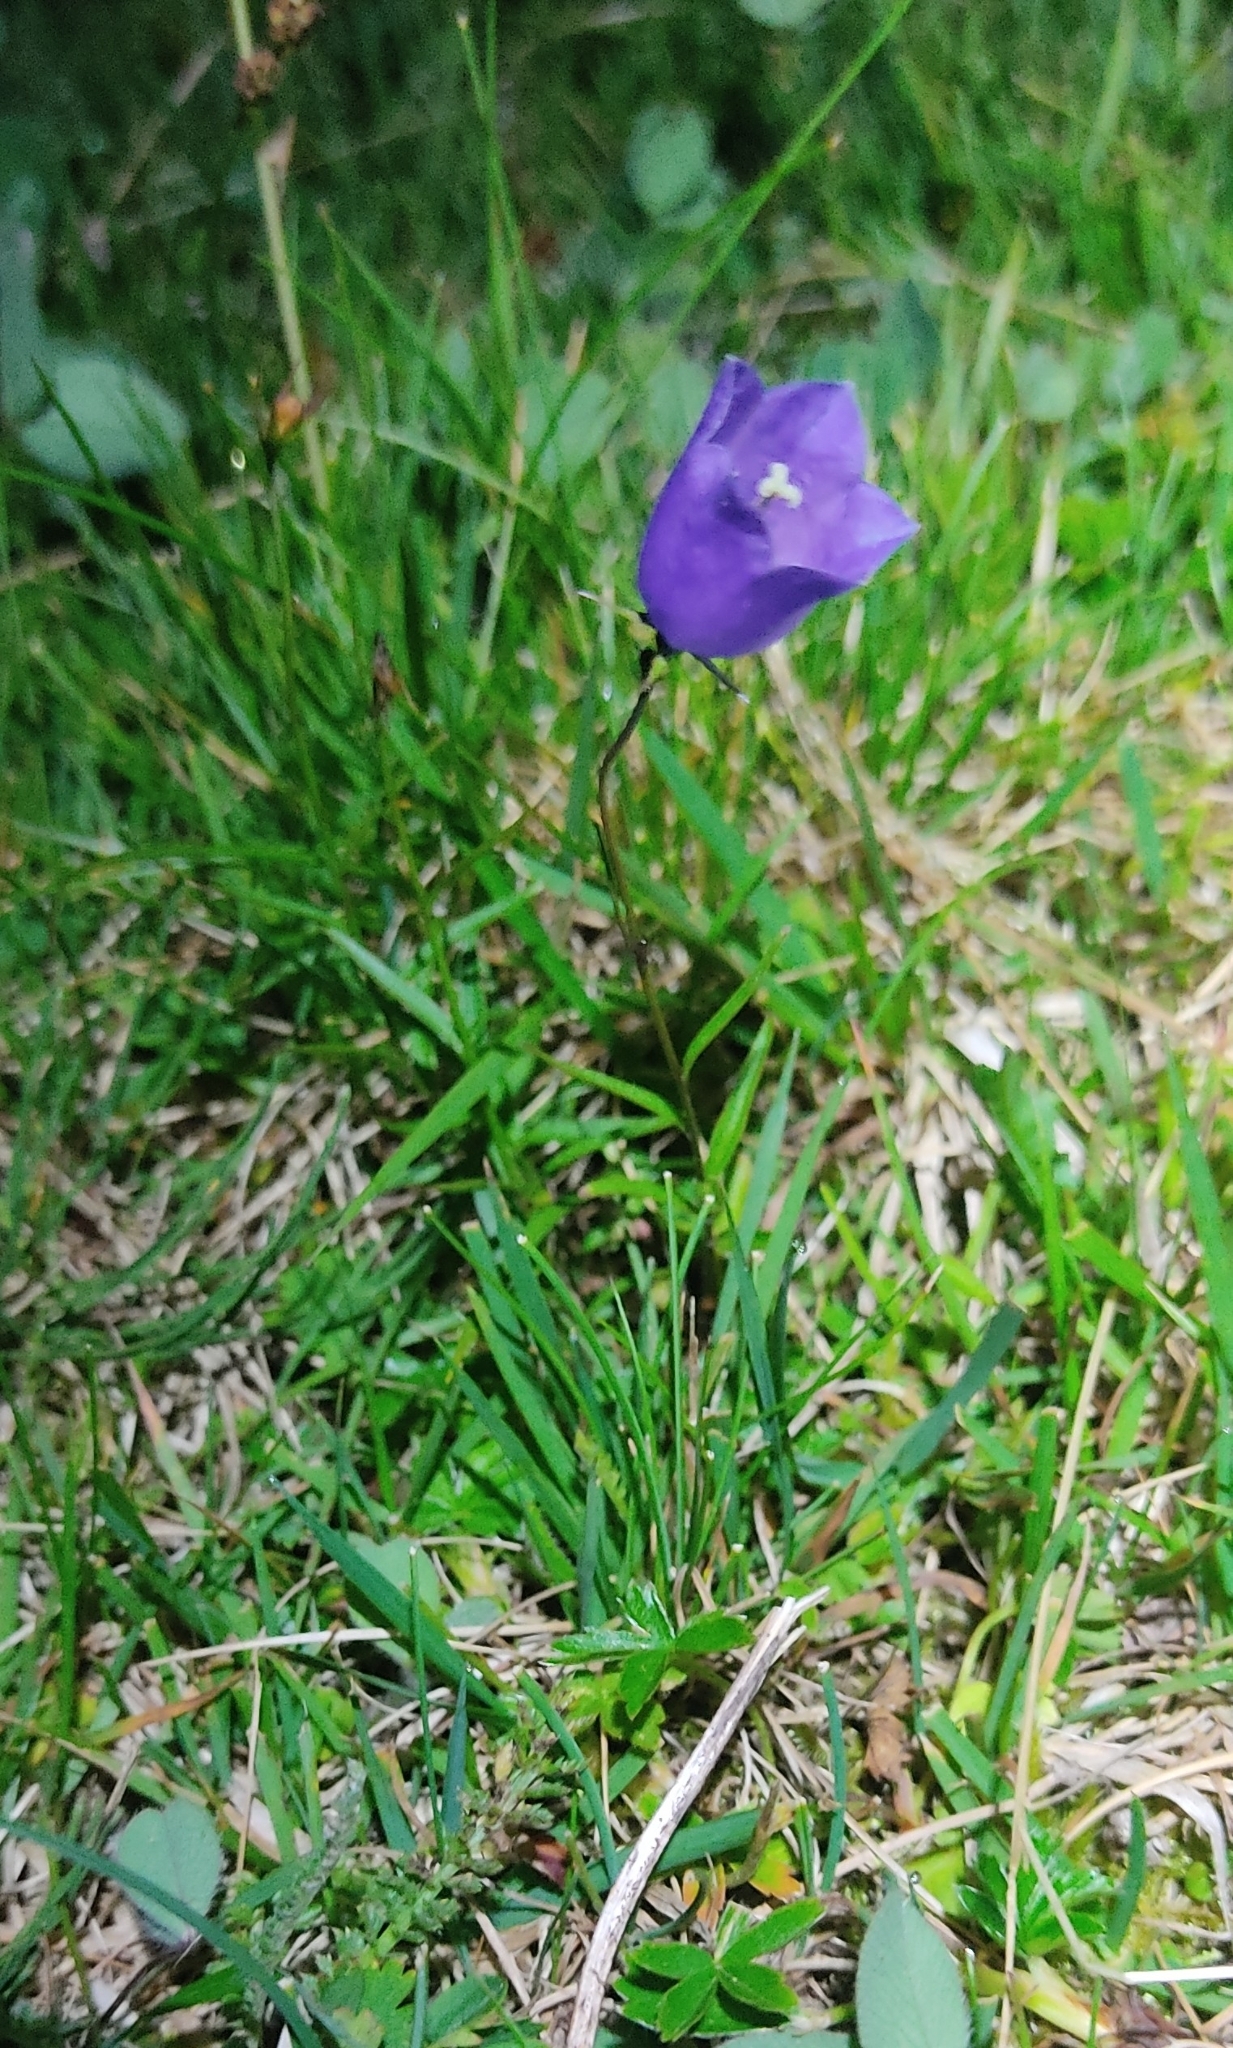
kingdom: Plantae
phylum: Tracheophyta
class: Magnoliopsida
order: Asterales
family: Campanulaceae
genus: Campanula
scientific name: Campanula scheuchzeri
